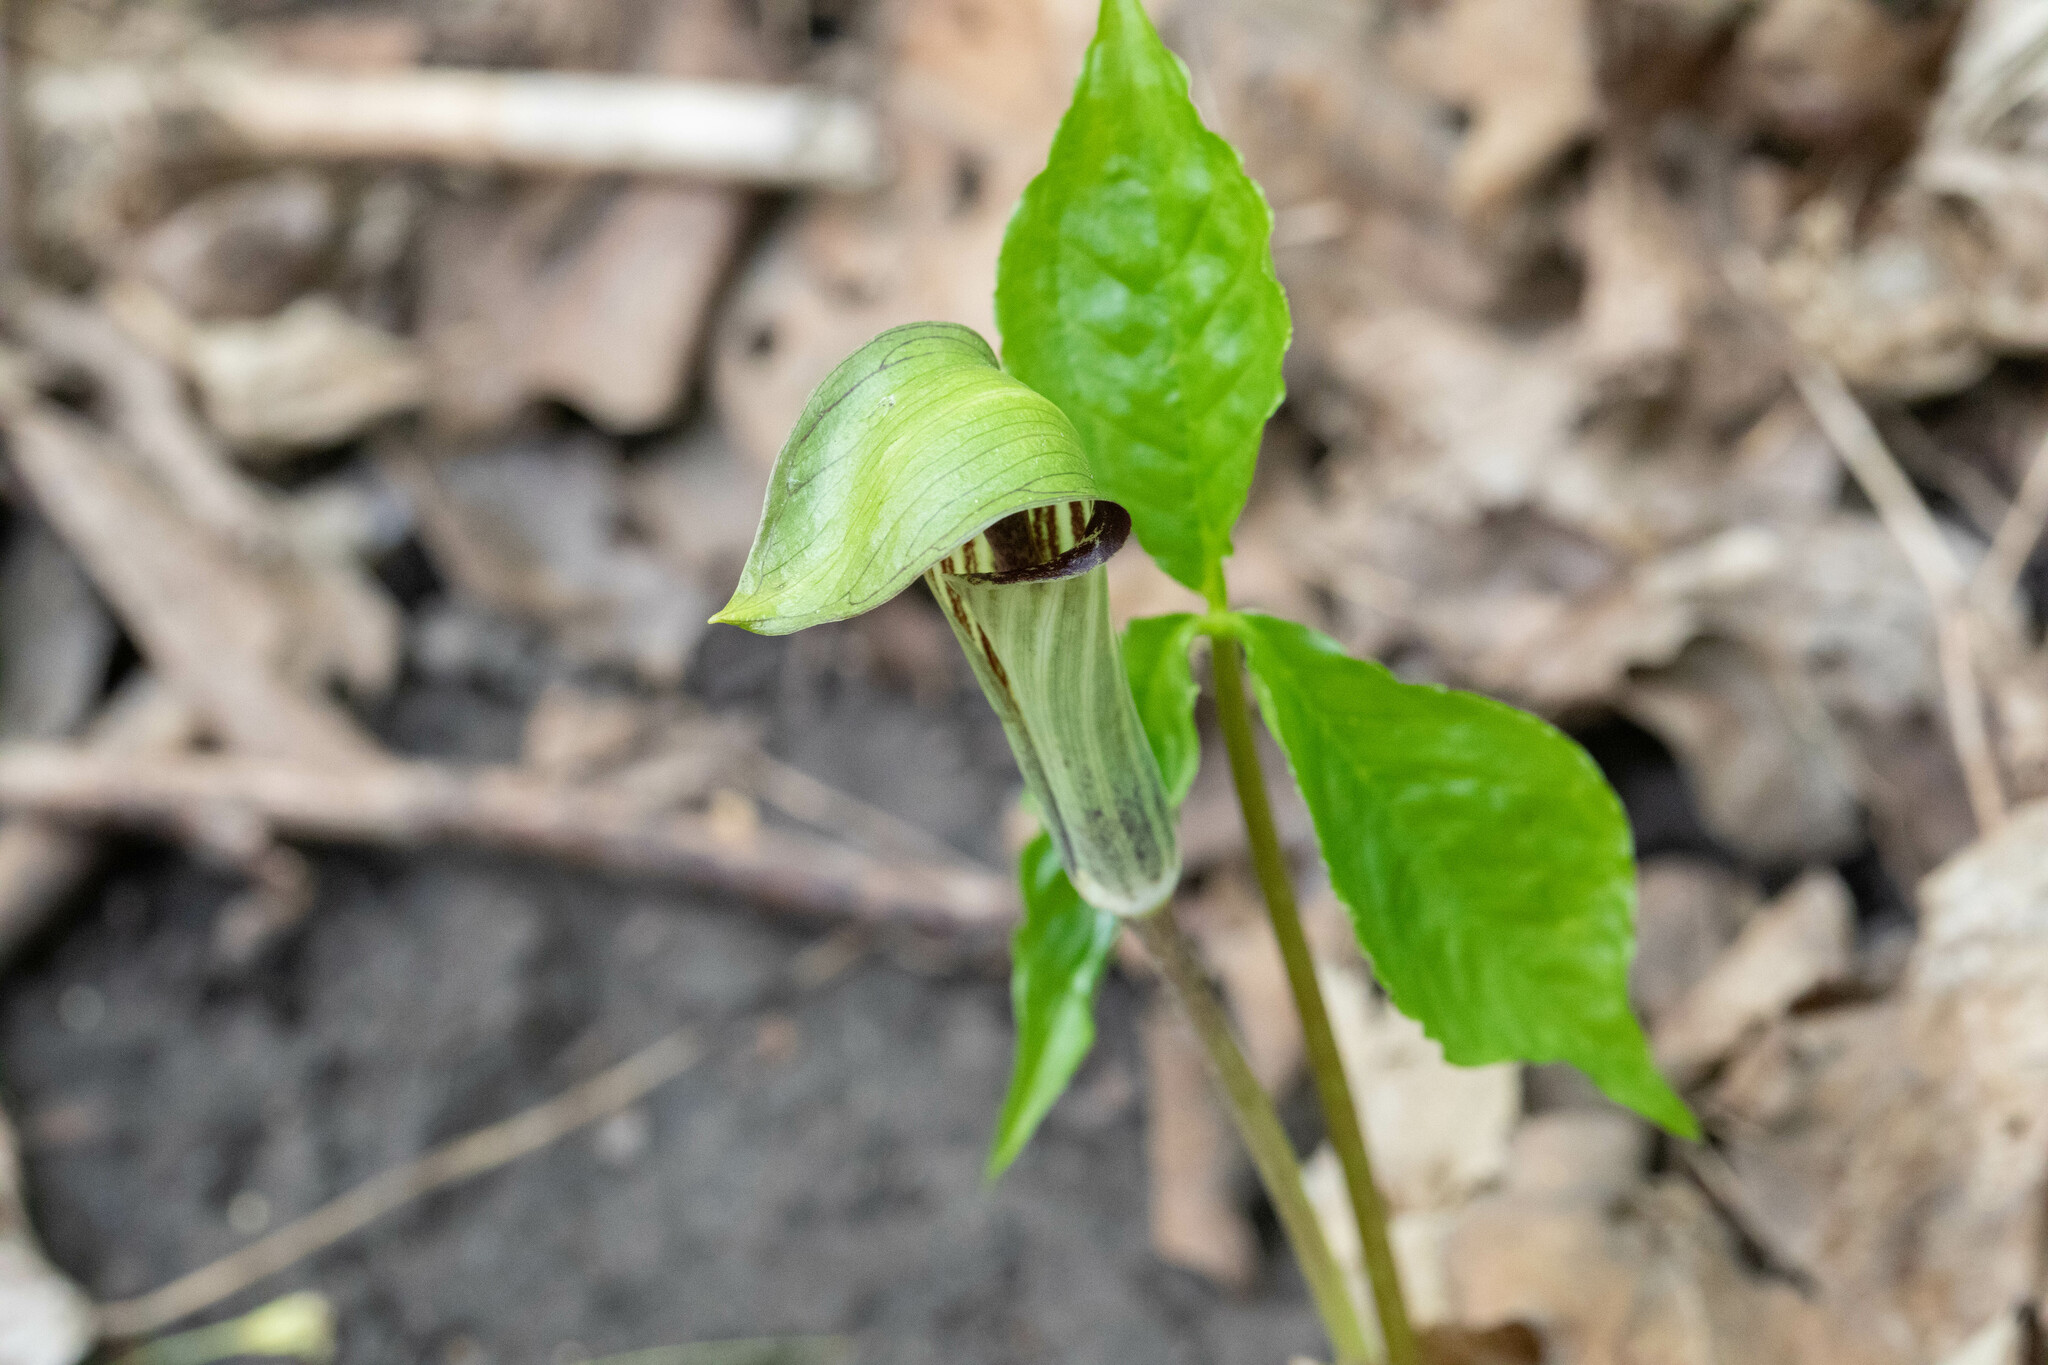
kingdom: Plantae
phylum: Tracheophyta
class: Liliopsida
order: Alismatales
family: Araceae
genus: Arisaema
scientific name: Arisaema triphyllum
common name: Jack-in-the-pulpit
